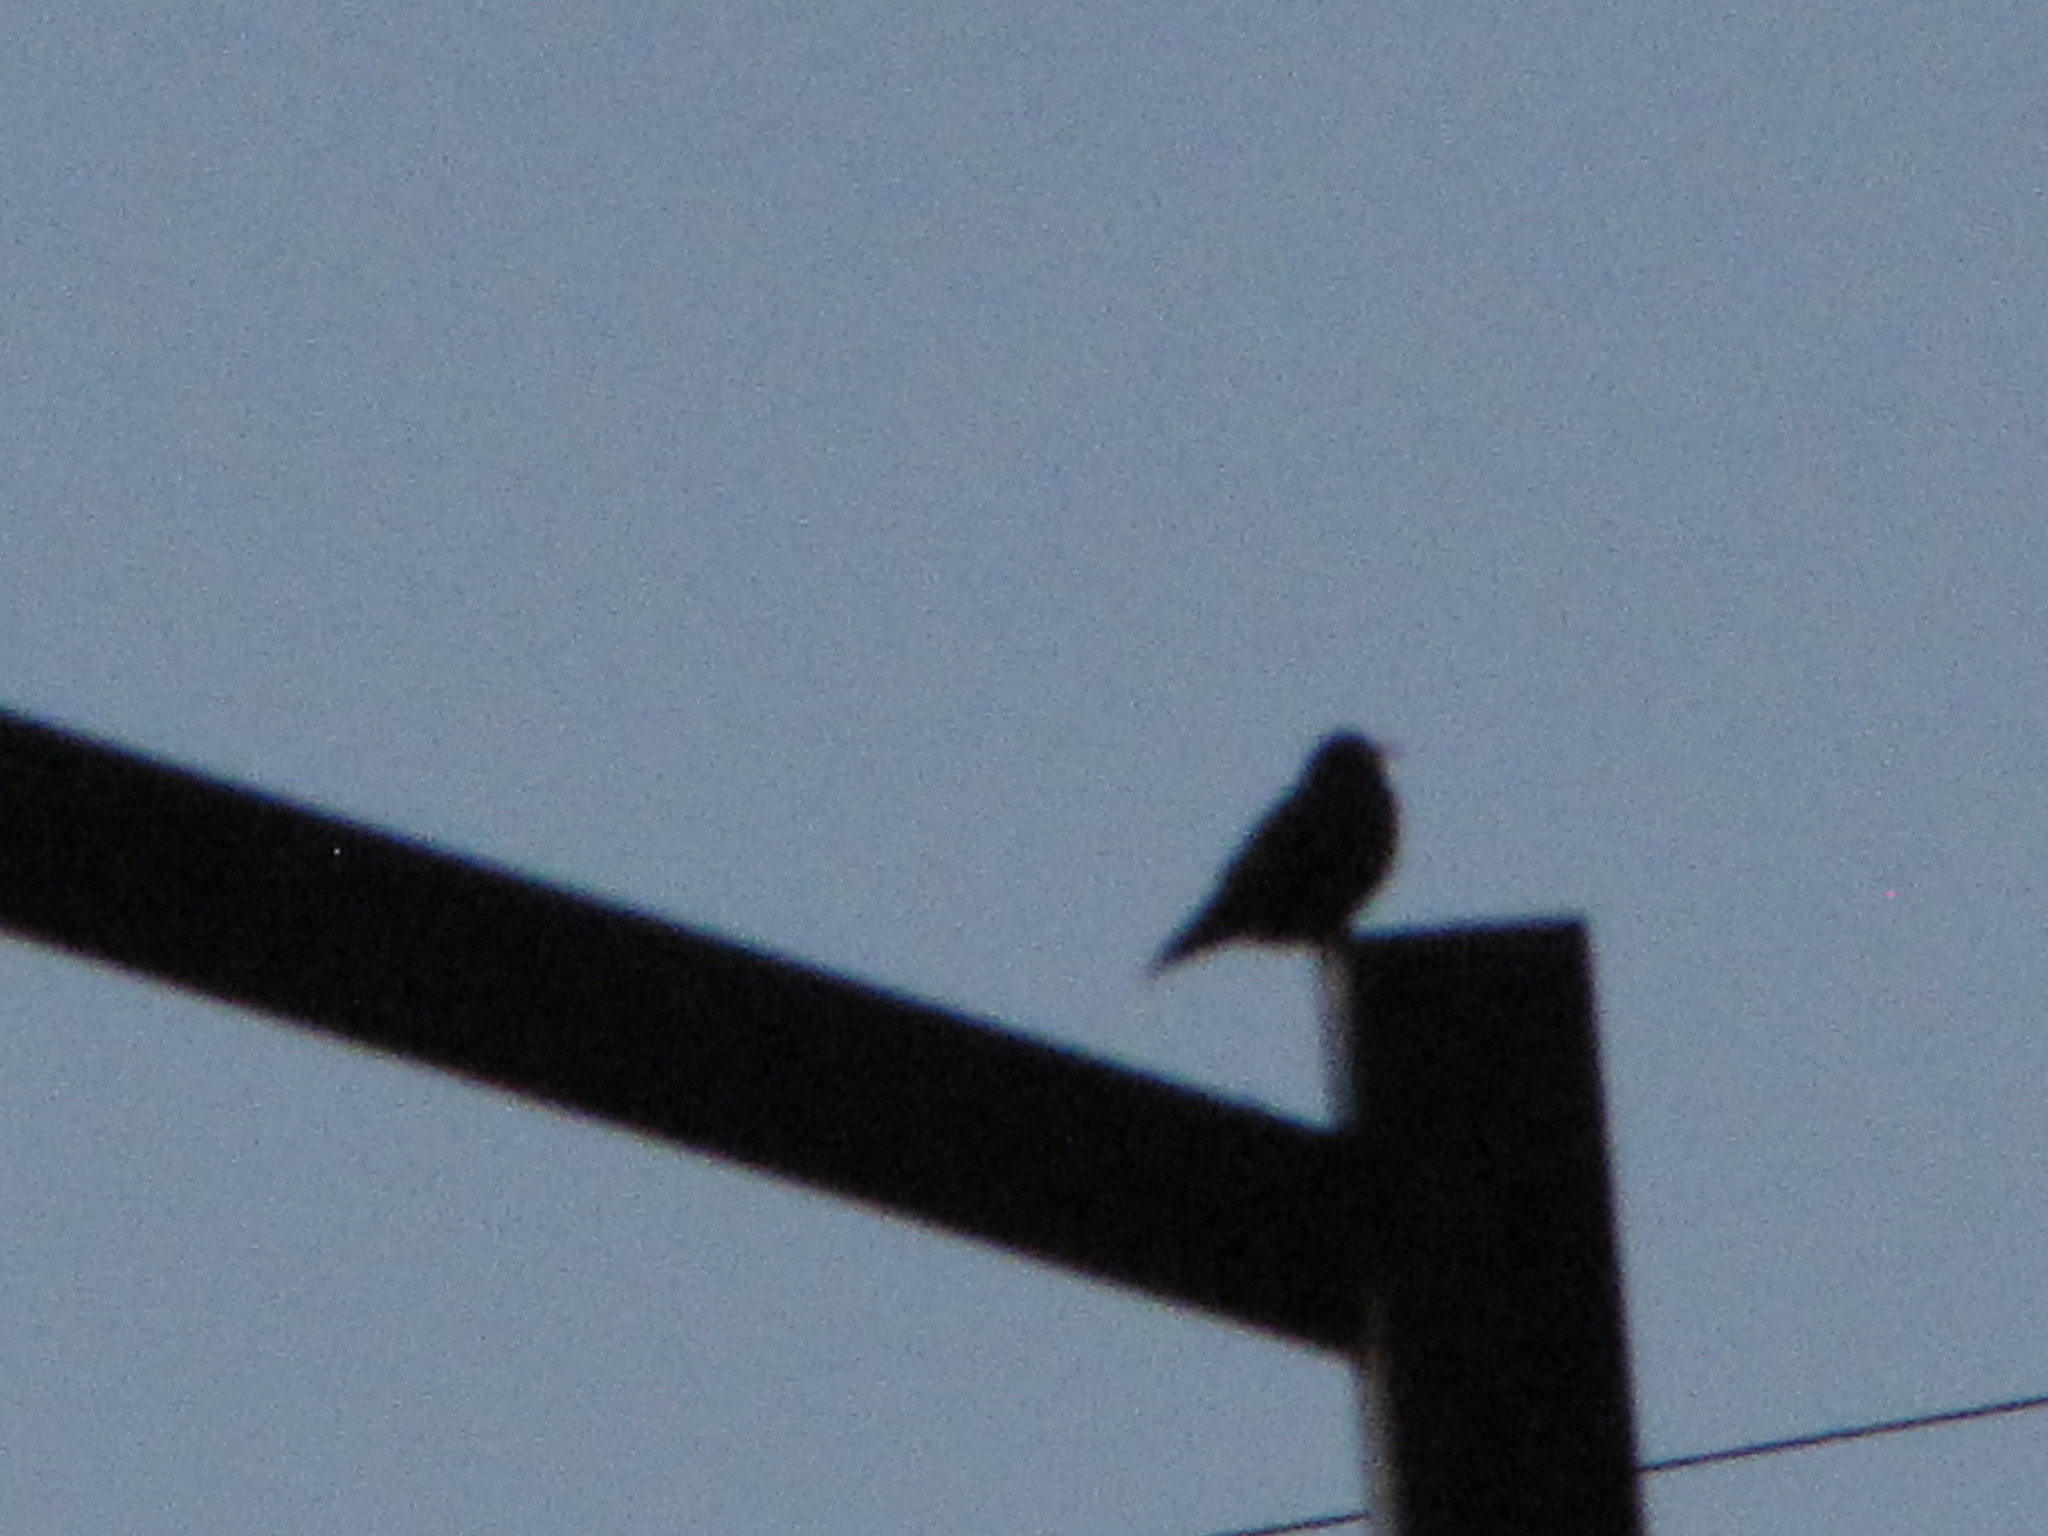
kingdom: Animalia
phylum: Chordata
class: Aves
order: Passeriformes
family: Sturnidae
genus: Sturnus
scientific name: Sturnus vulgaris
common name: Common starling
